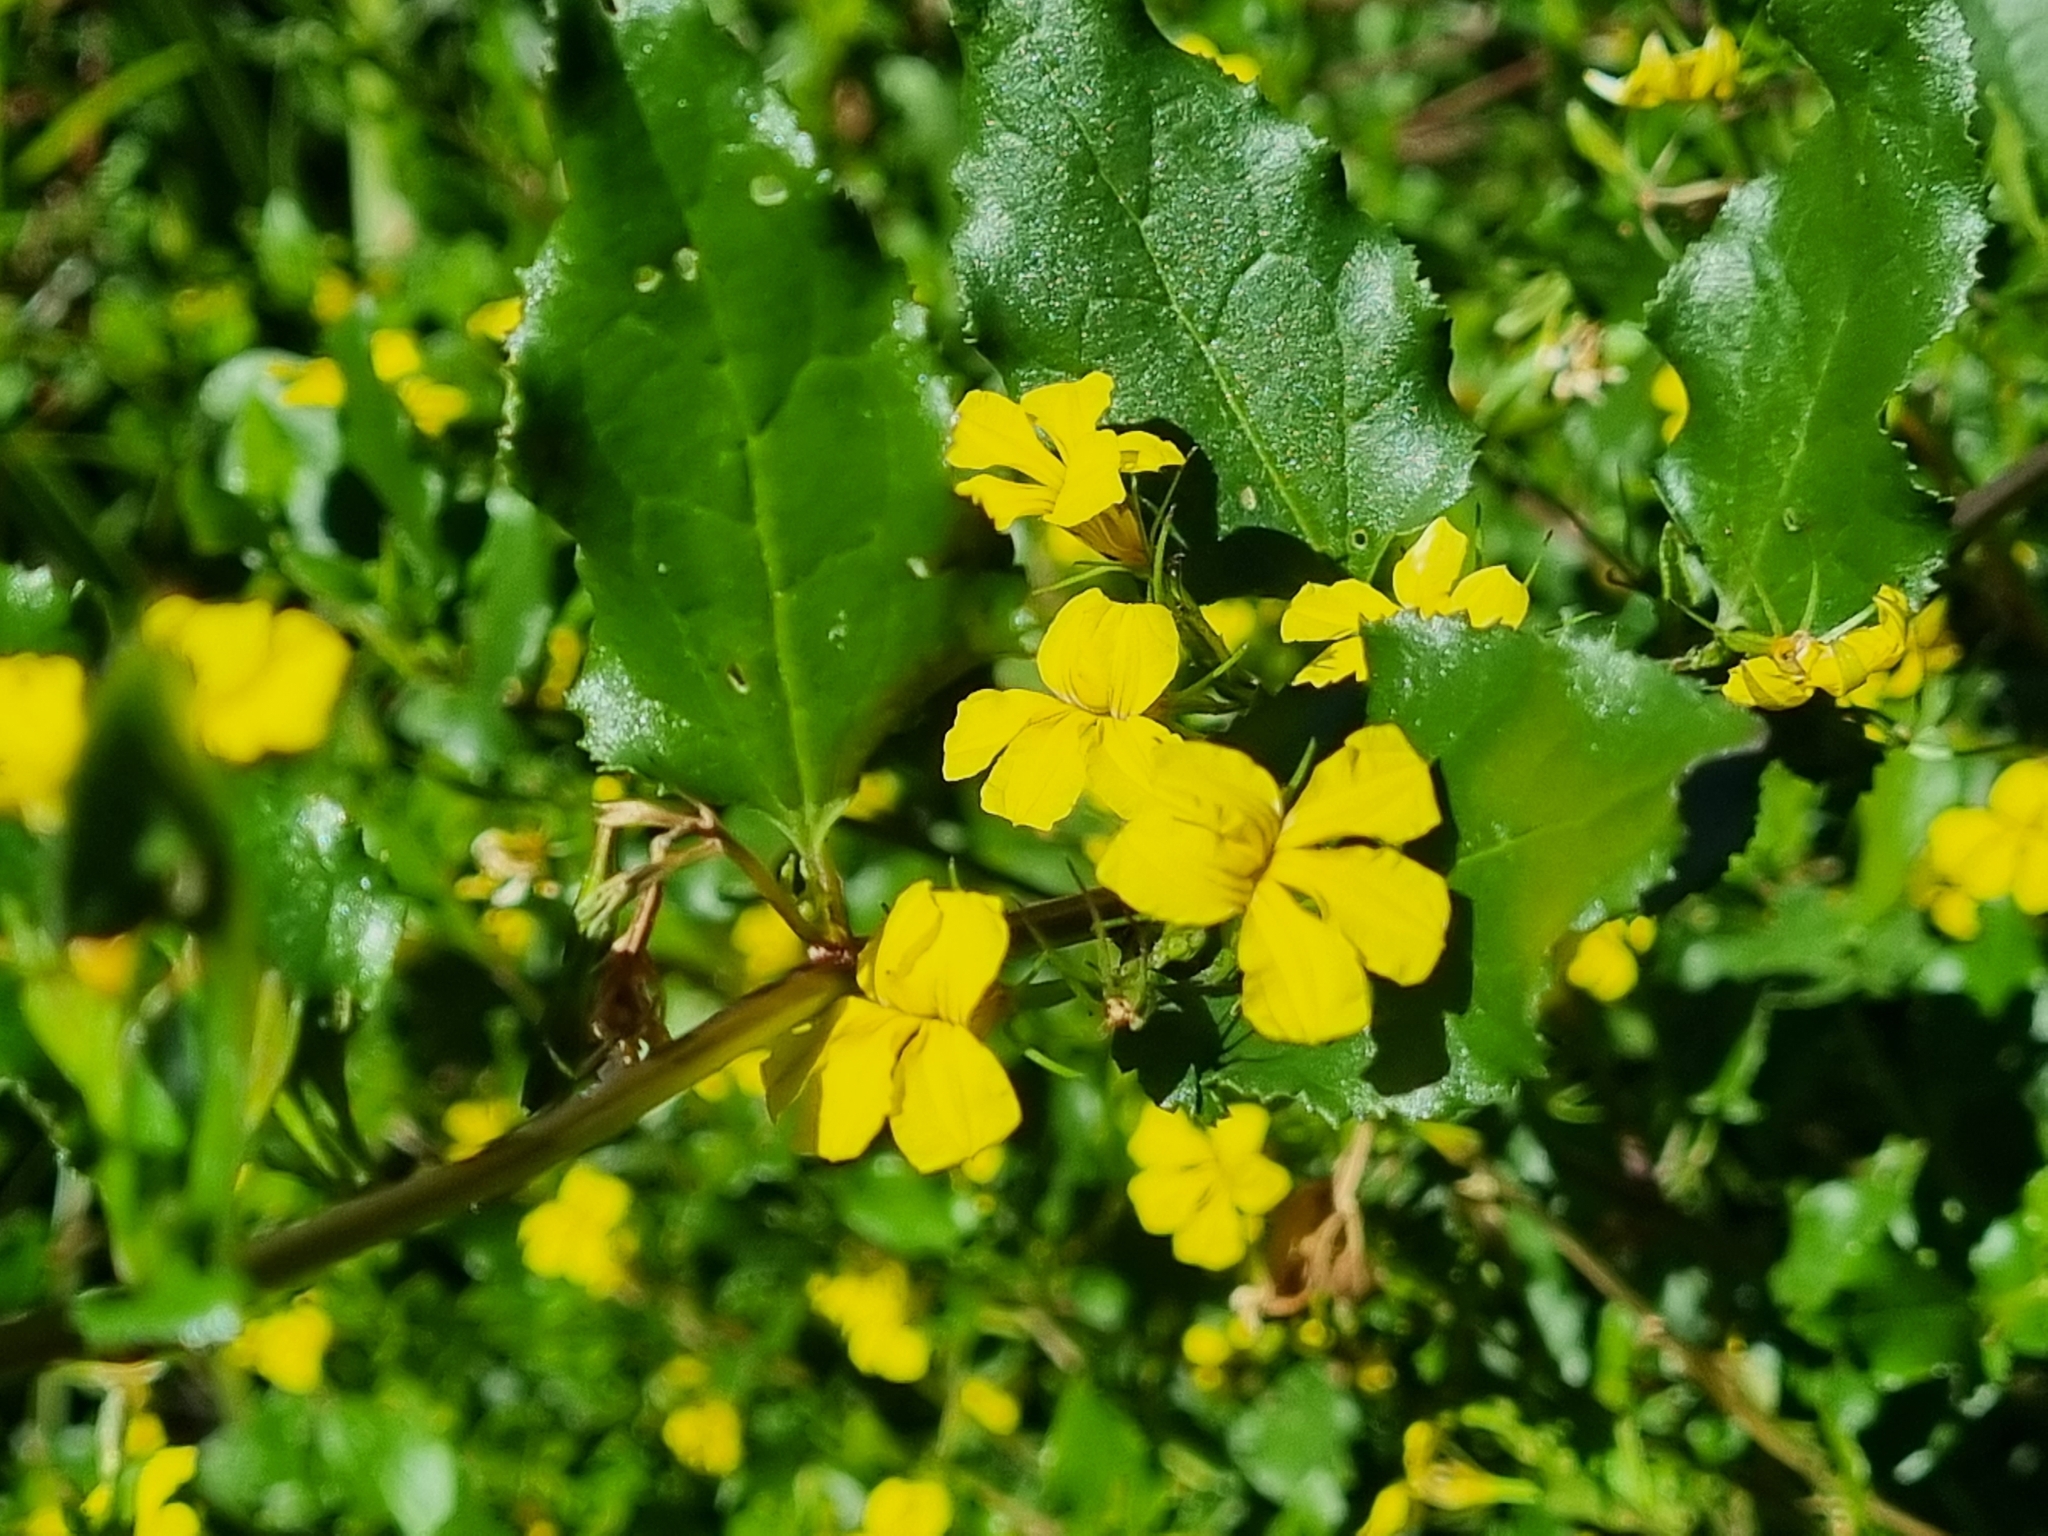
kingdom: Plantae
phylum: Tracheophyta
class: Magnoliopsida
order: Asterales
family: Goodeniaceae
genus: Goodenia
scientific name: Goodenia ovata
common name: Hop goodenia
